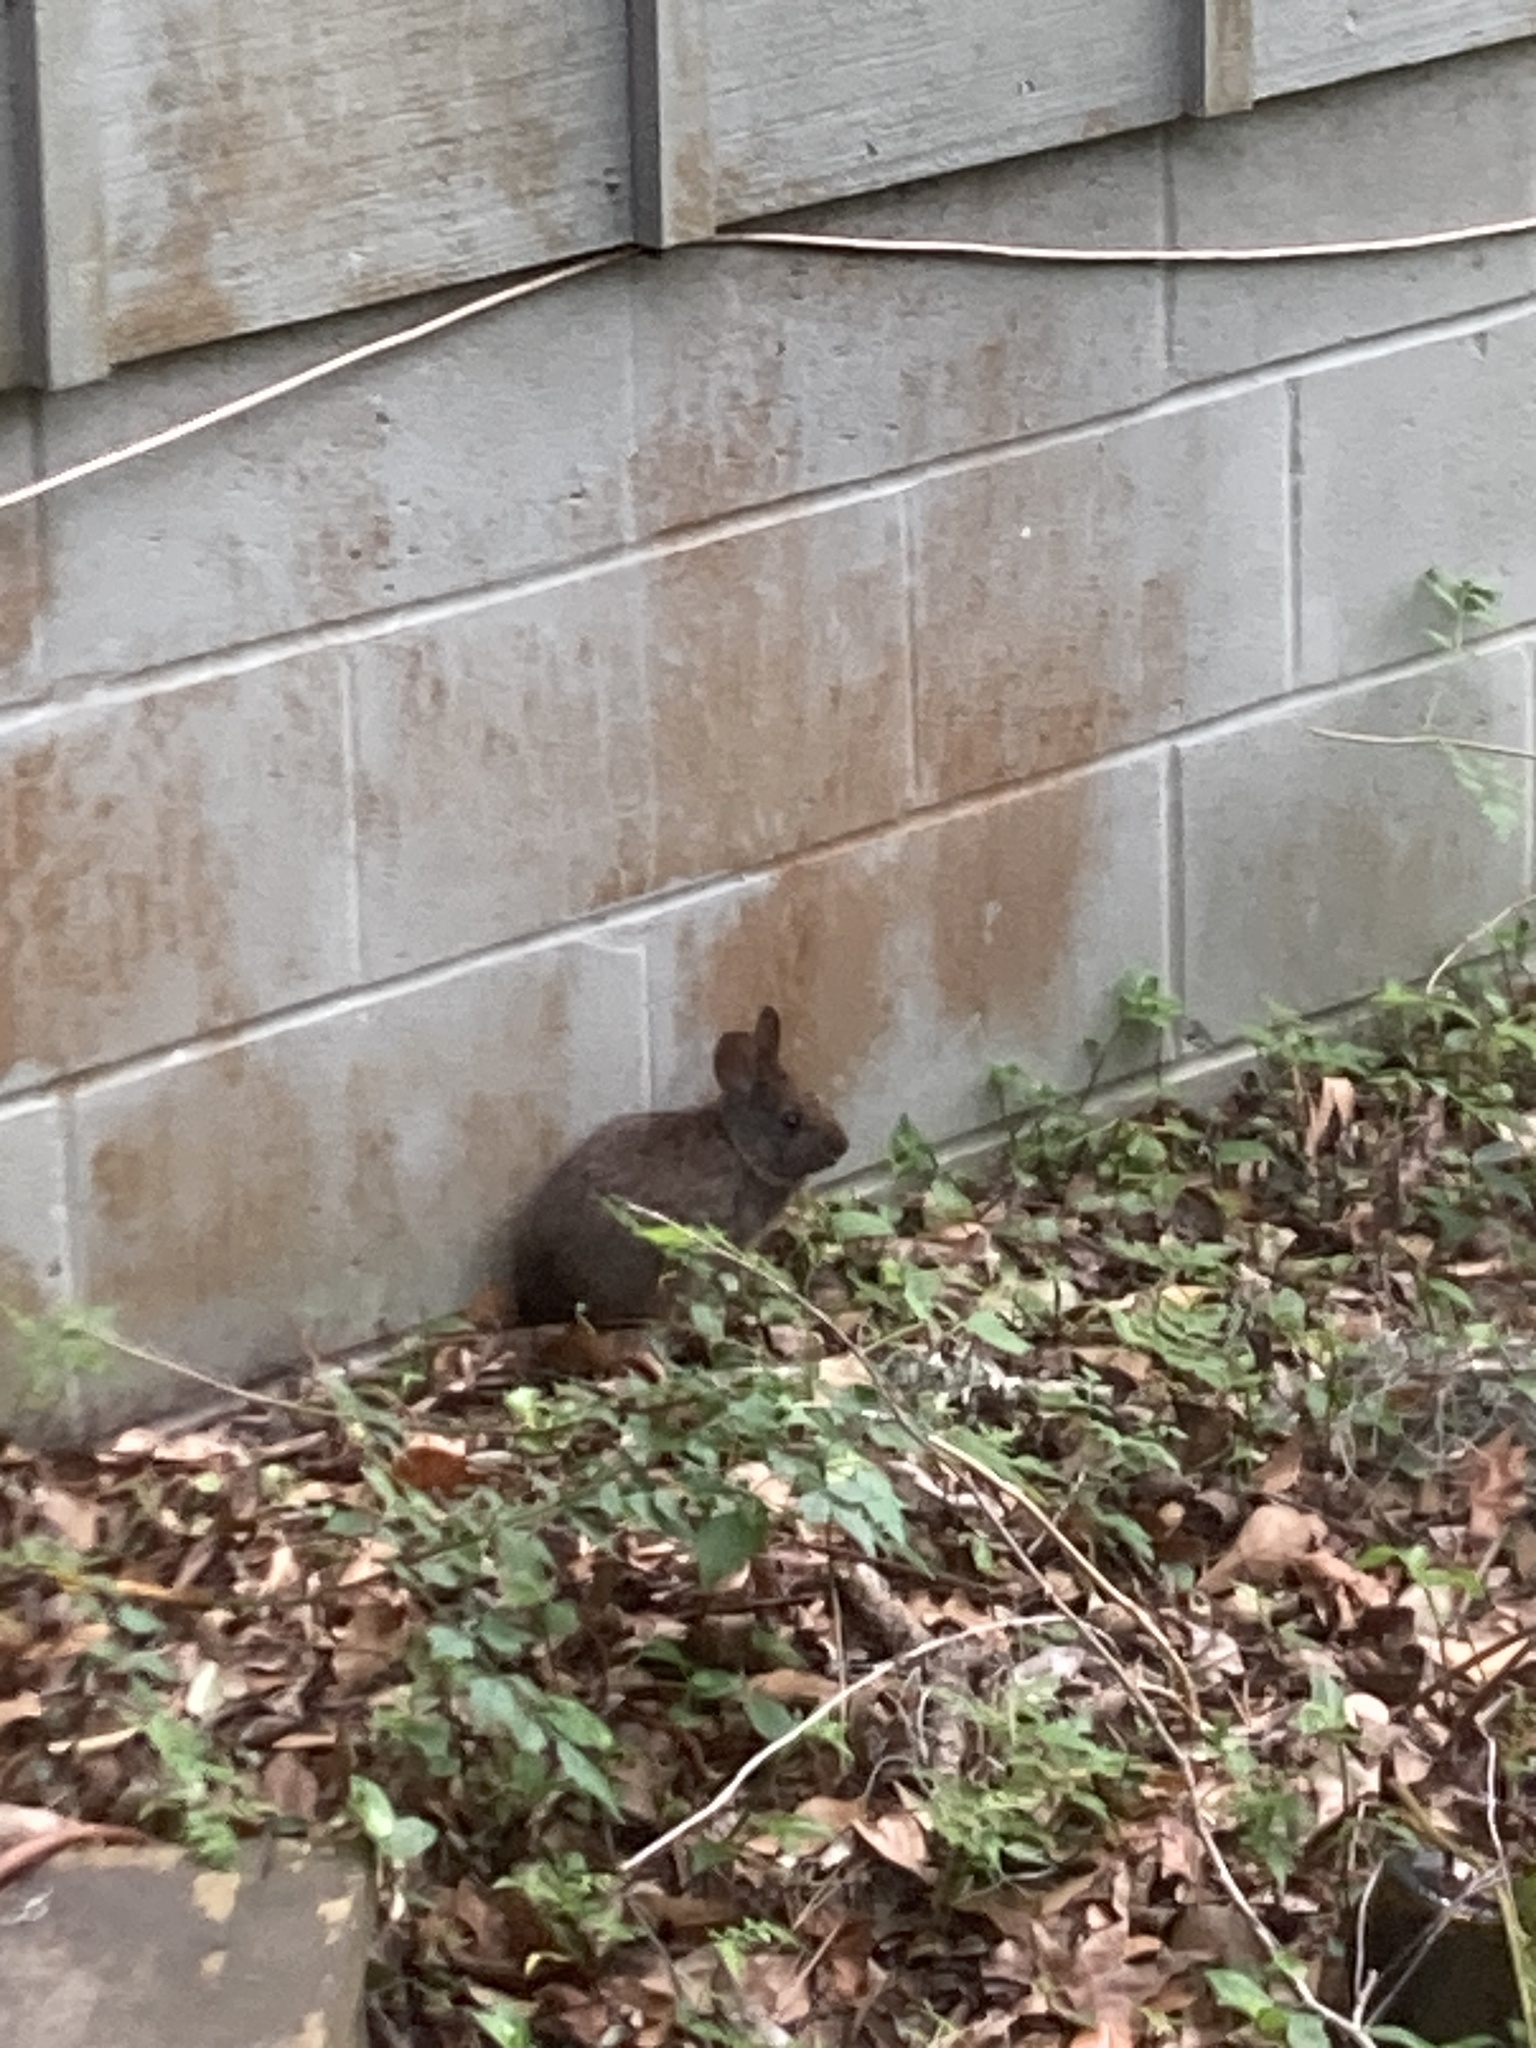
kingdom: Animalia
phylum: Chordata
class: Mammalia
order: Lagomorpha
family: Leporidae
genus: Sylvilagus
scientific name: Sylvilagus palustris
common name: Marsh rabbit
